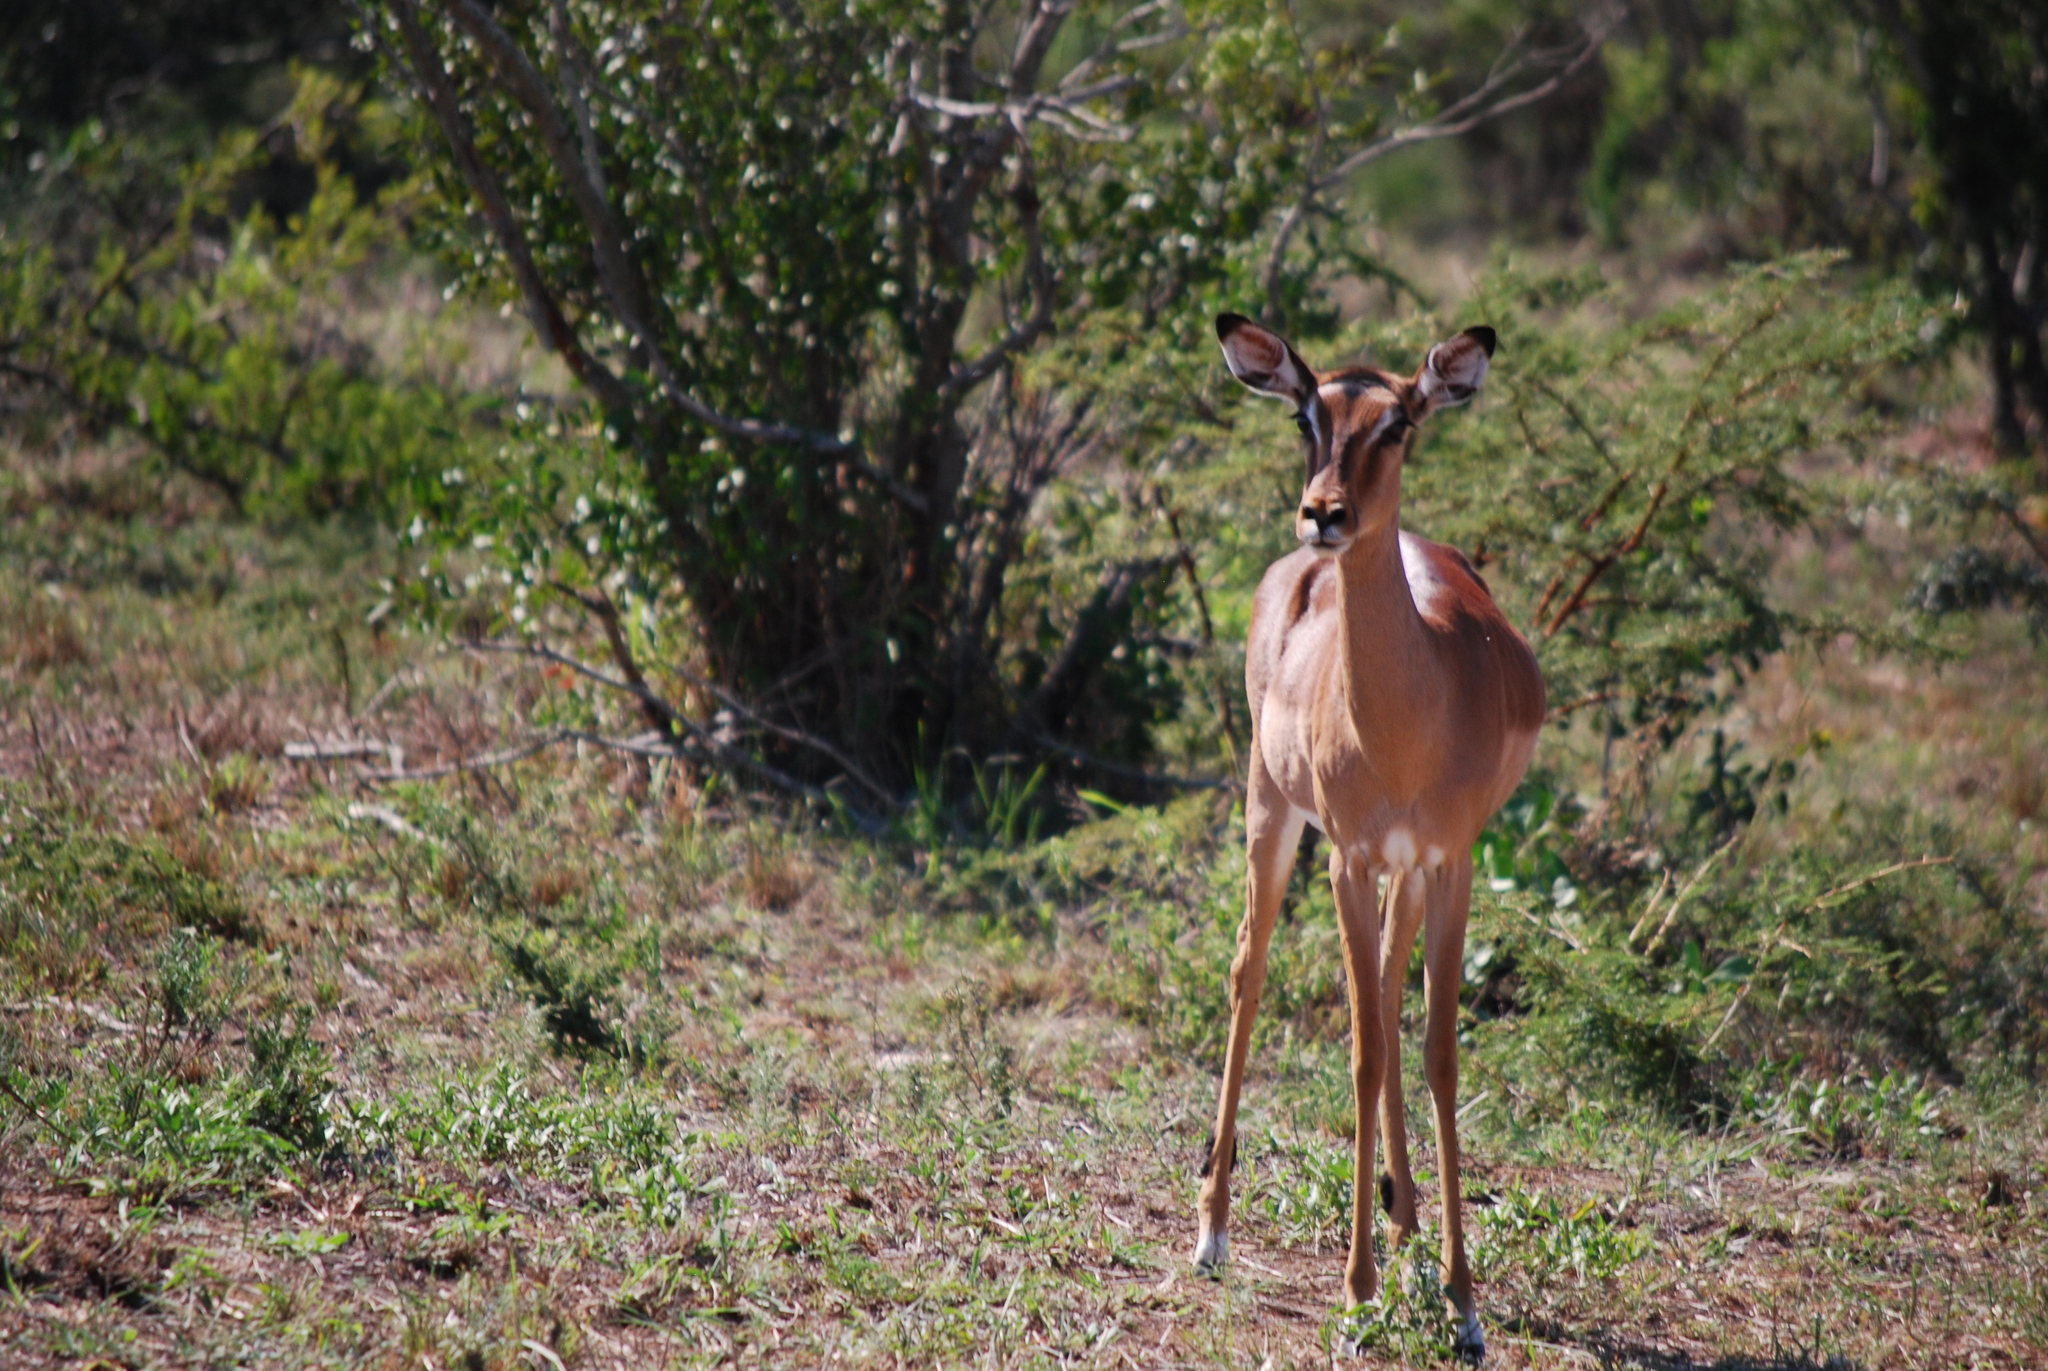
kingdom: Animalia
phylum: Chordata
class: Mammalia
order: Artiodactyla
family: Bovidae
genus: Aepyceros
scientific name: Aepyceros melampus
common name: Impala
